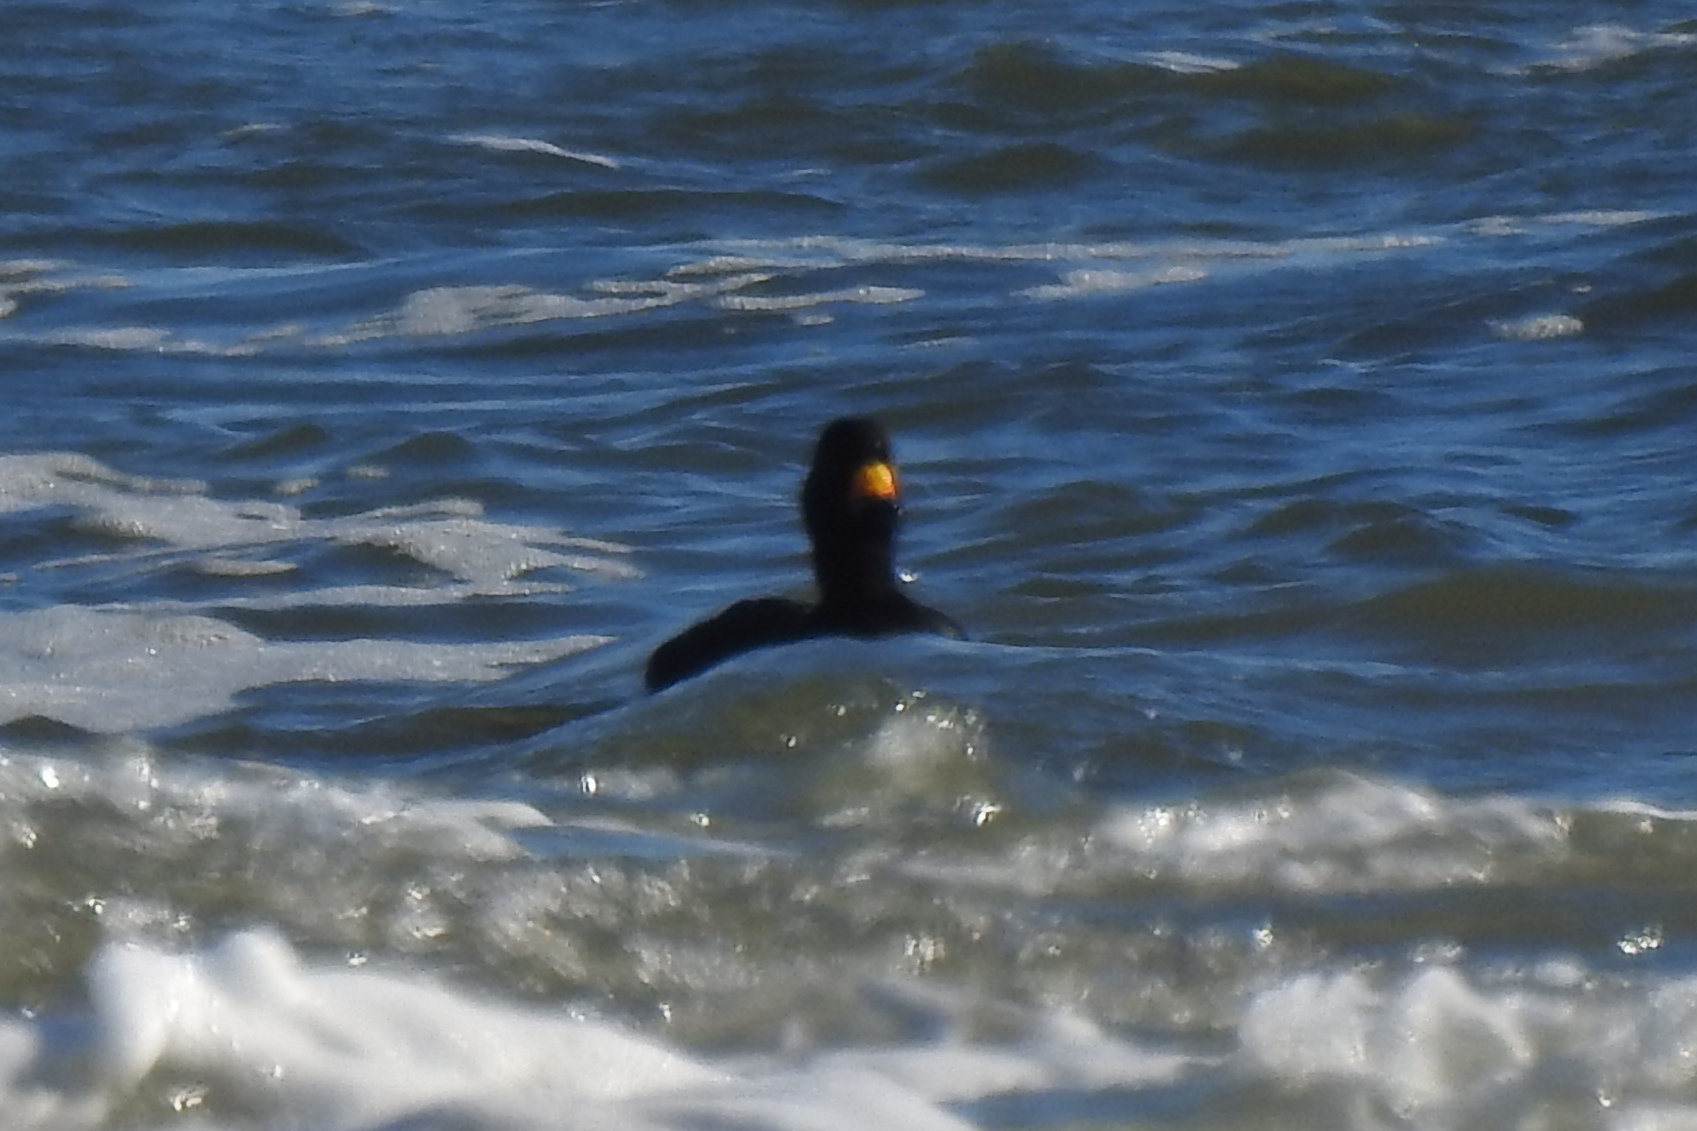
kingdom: Animalia
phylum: Chordata
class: Aves
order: Anseriformes
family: Anatidae
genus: Melanitta
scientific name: Melanitta americana
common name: Black scoter
